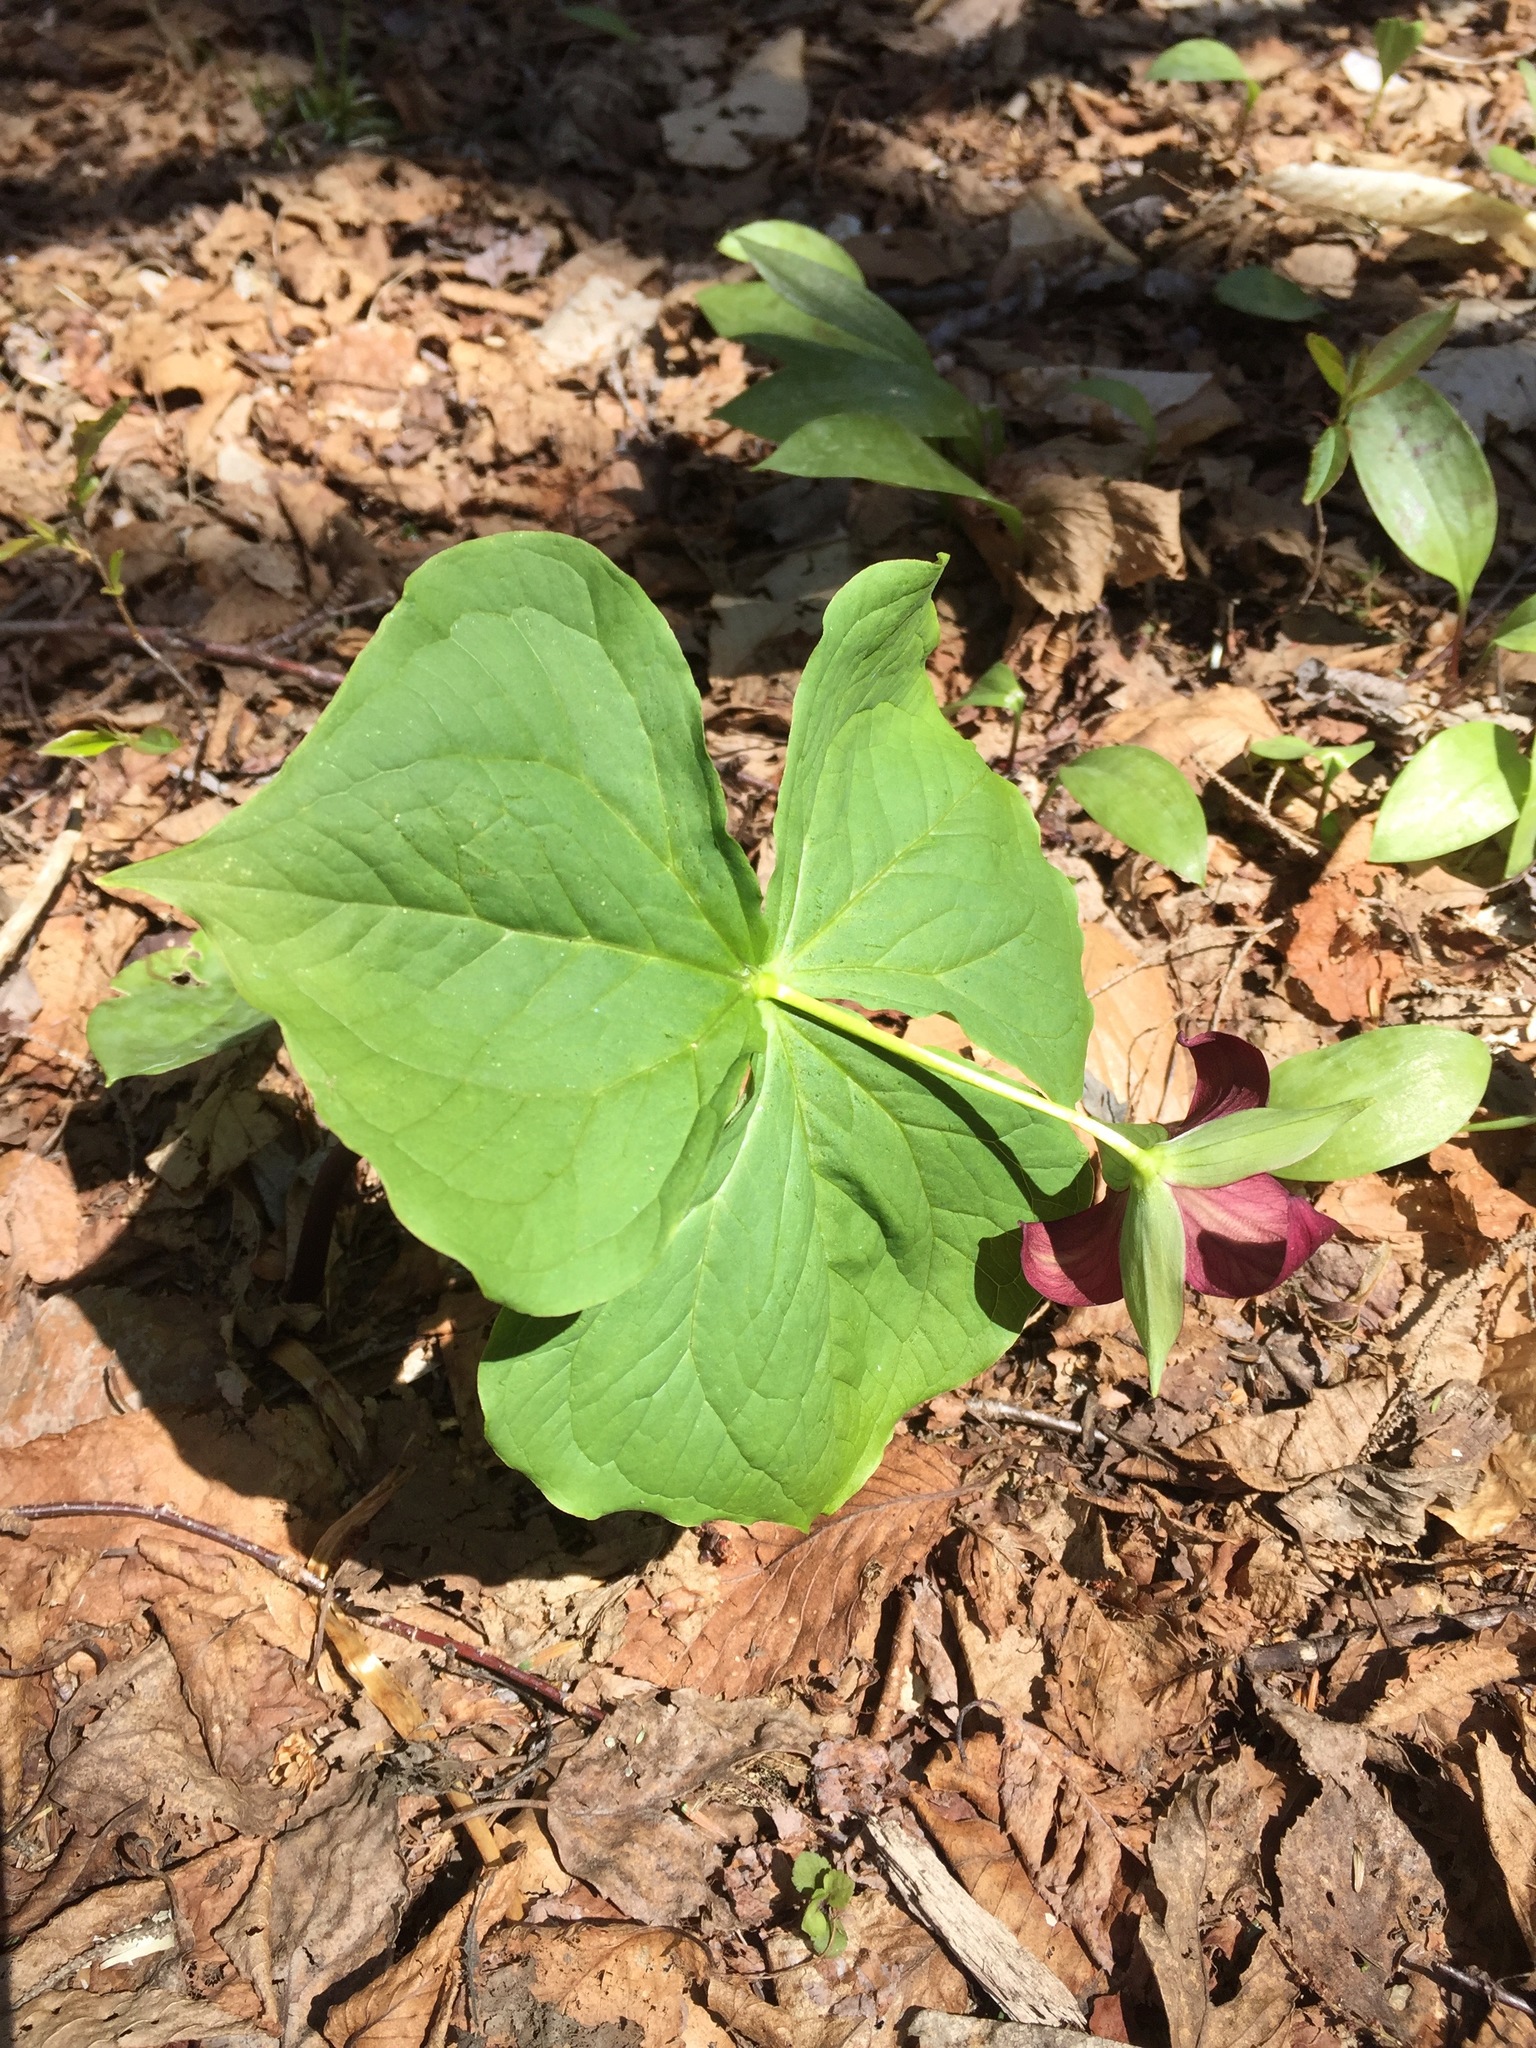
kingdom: Plantae
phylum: Tracheophyta
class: Liliopsida
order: Liliales
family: Melanthiaceae
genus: Trillium
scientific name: Trillium erectum
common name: Purple trillium
